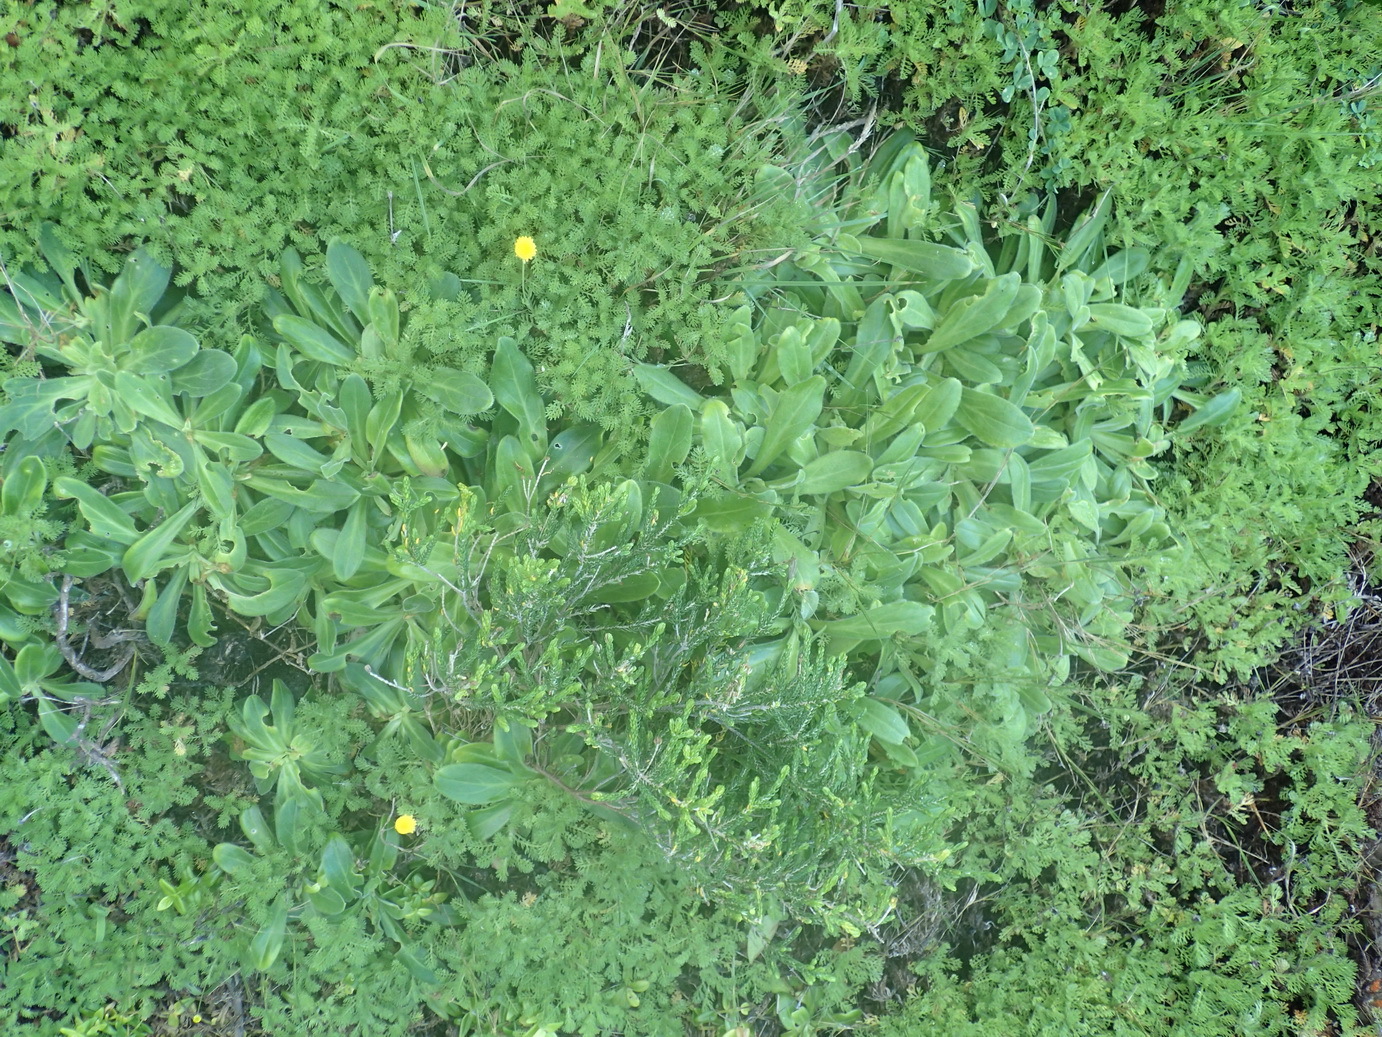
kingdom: Plantae
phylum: Tracheophyta
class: Magnoliopsida
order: Caryophyllales
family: Caryophyllaceae
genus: Silene
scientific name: Silene undulata
